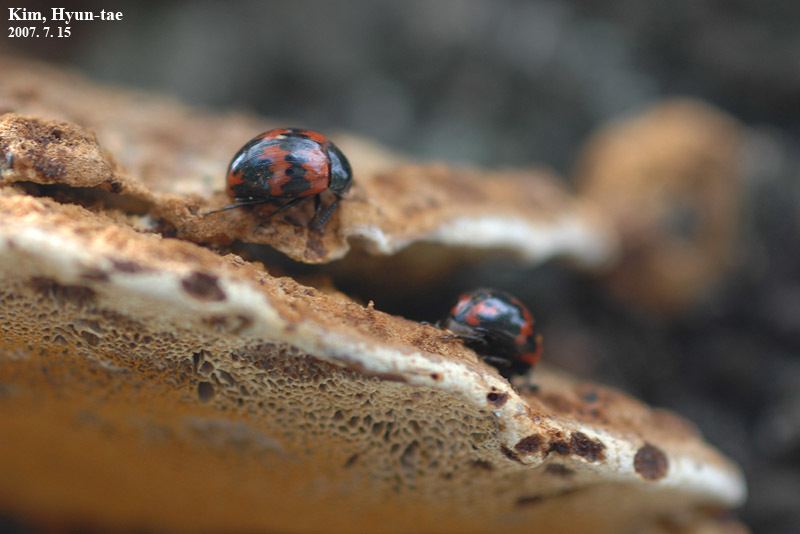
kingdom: Animalia
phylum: Arthropoda
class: Insecta
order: Coleoptera
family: Tenebrionidae
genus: Diaperis
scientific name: Diaperis lewisi
